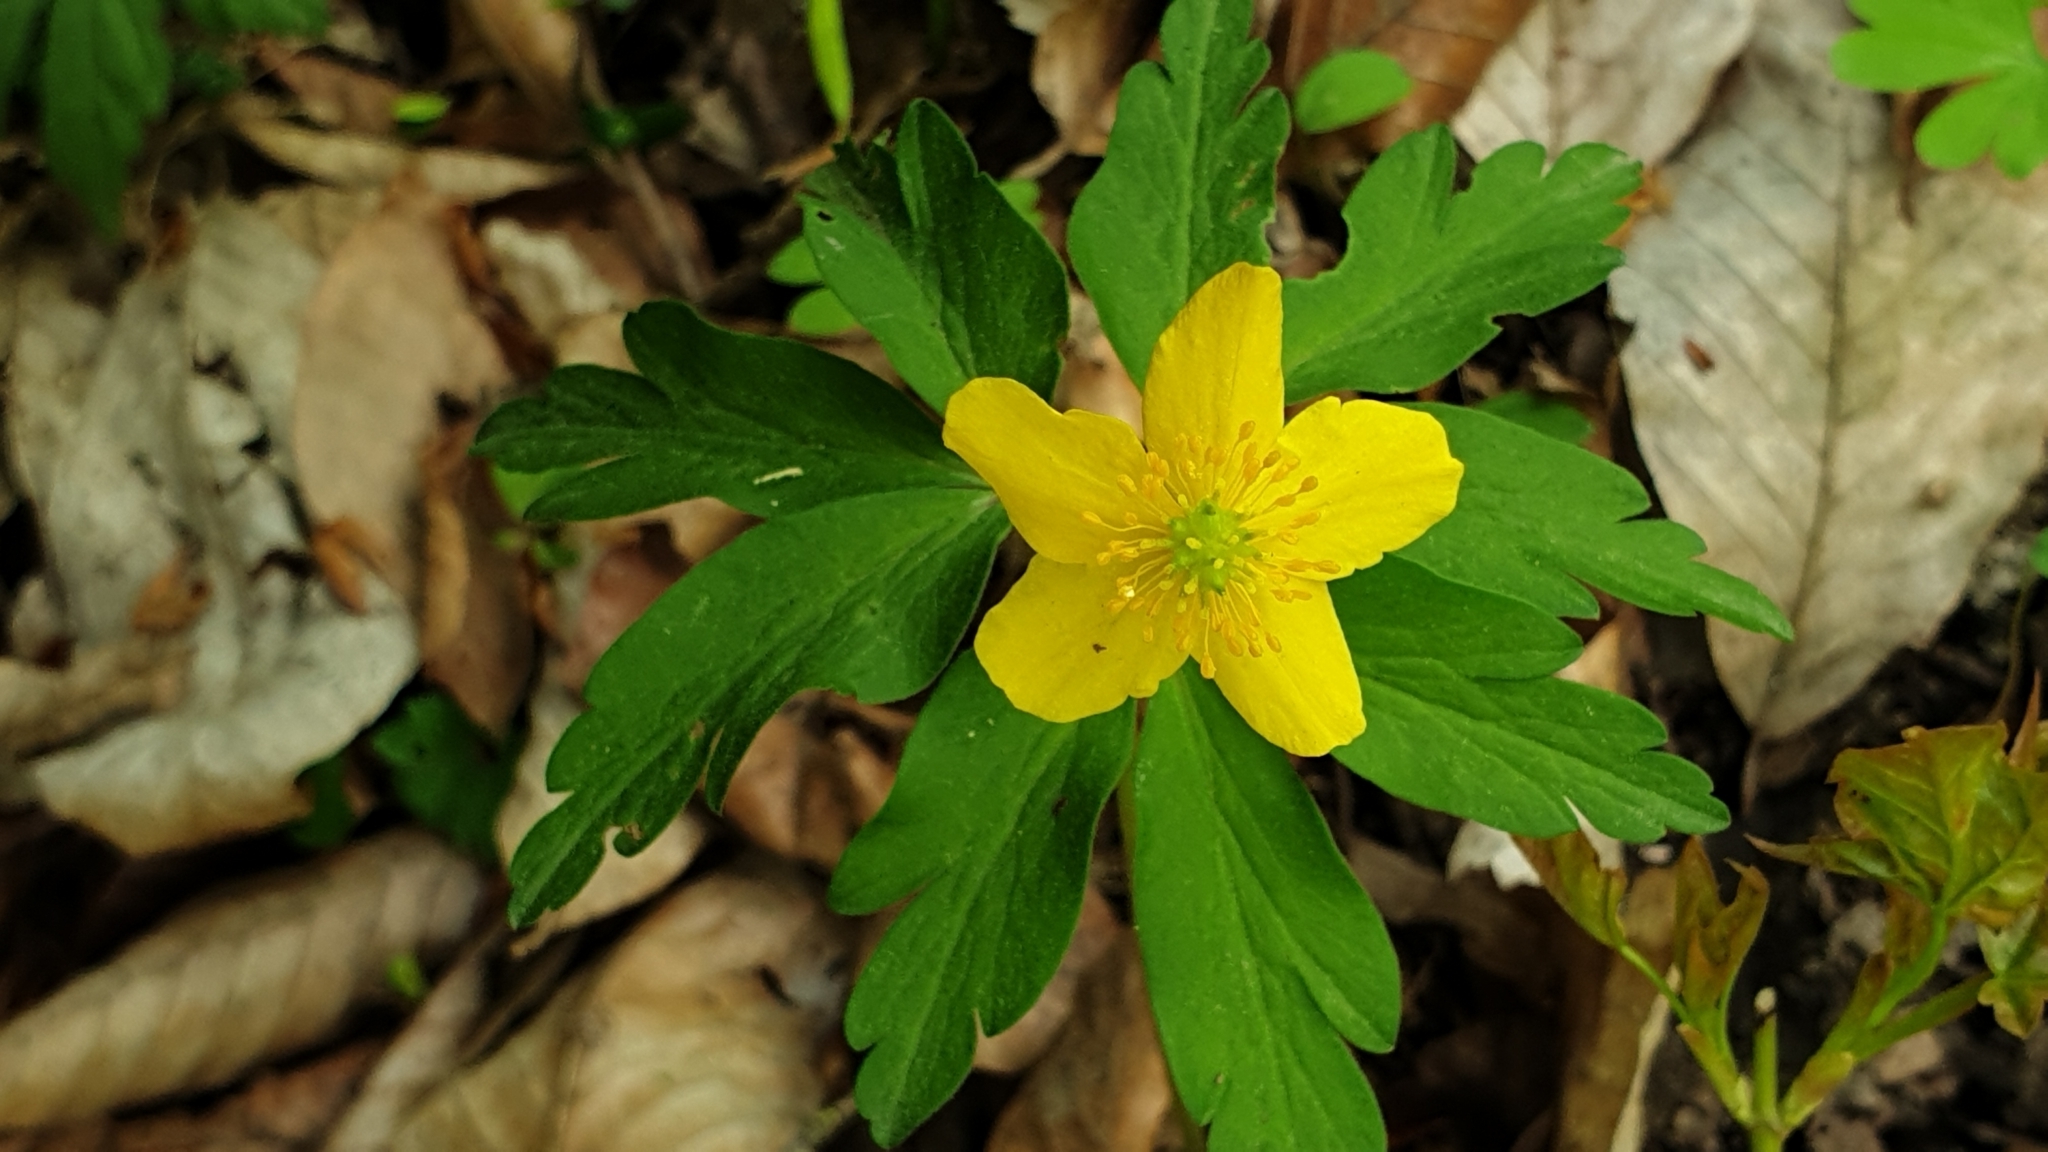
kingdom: Plantae
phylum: Tracheophyta
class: Magnoliopsida
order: Ranunculales
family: Ranunculaceae
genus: Anemone
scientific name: Anemone ranunculoides
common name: Yellow anemone
